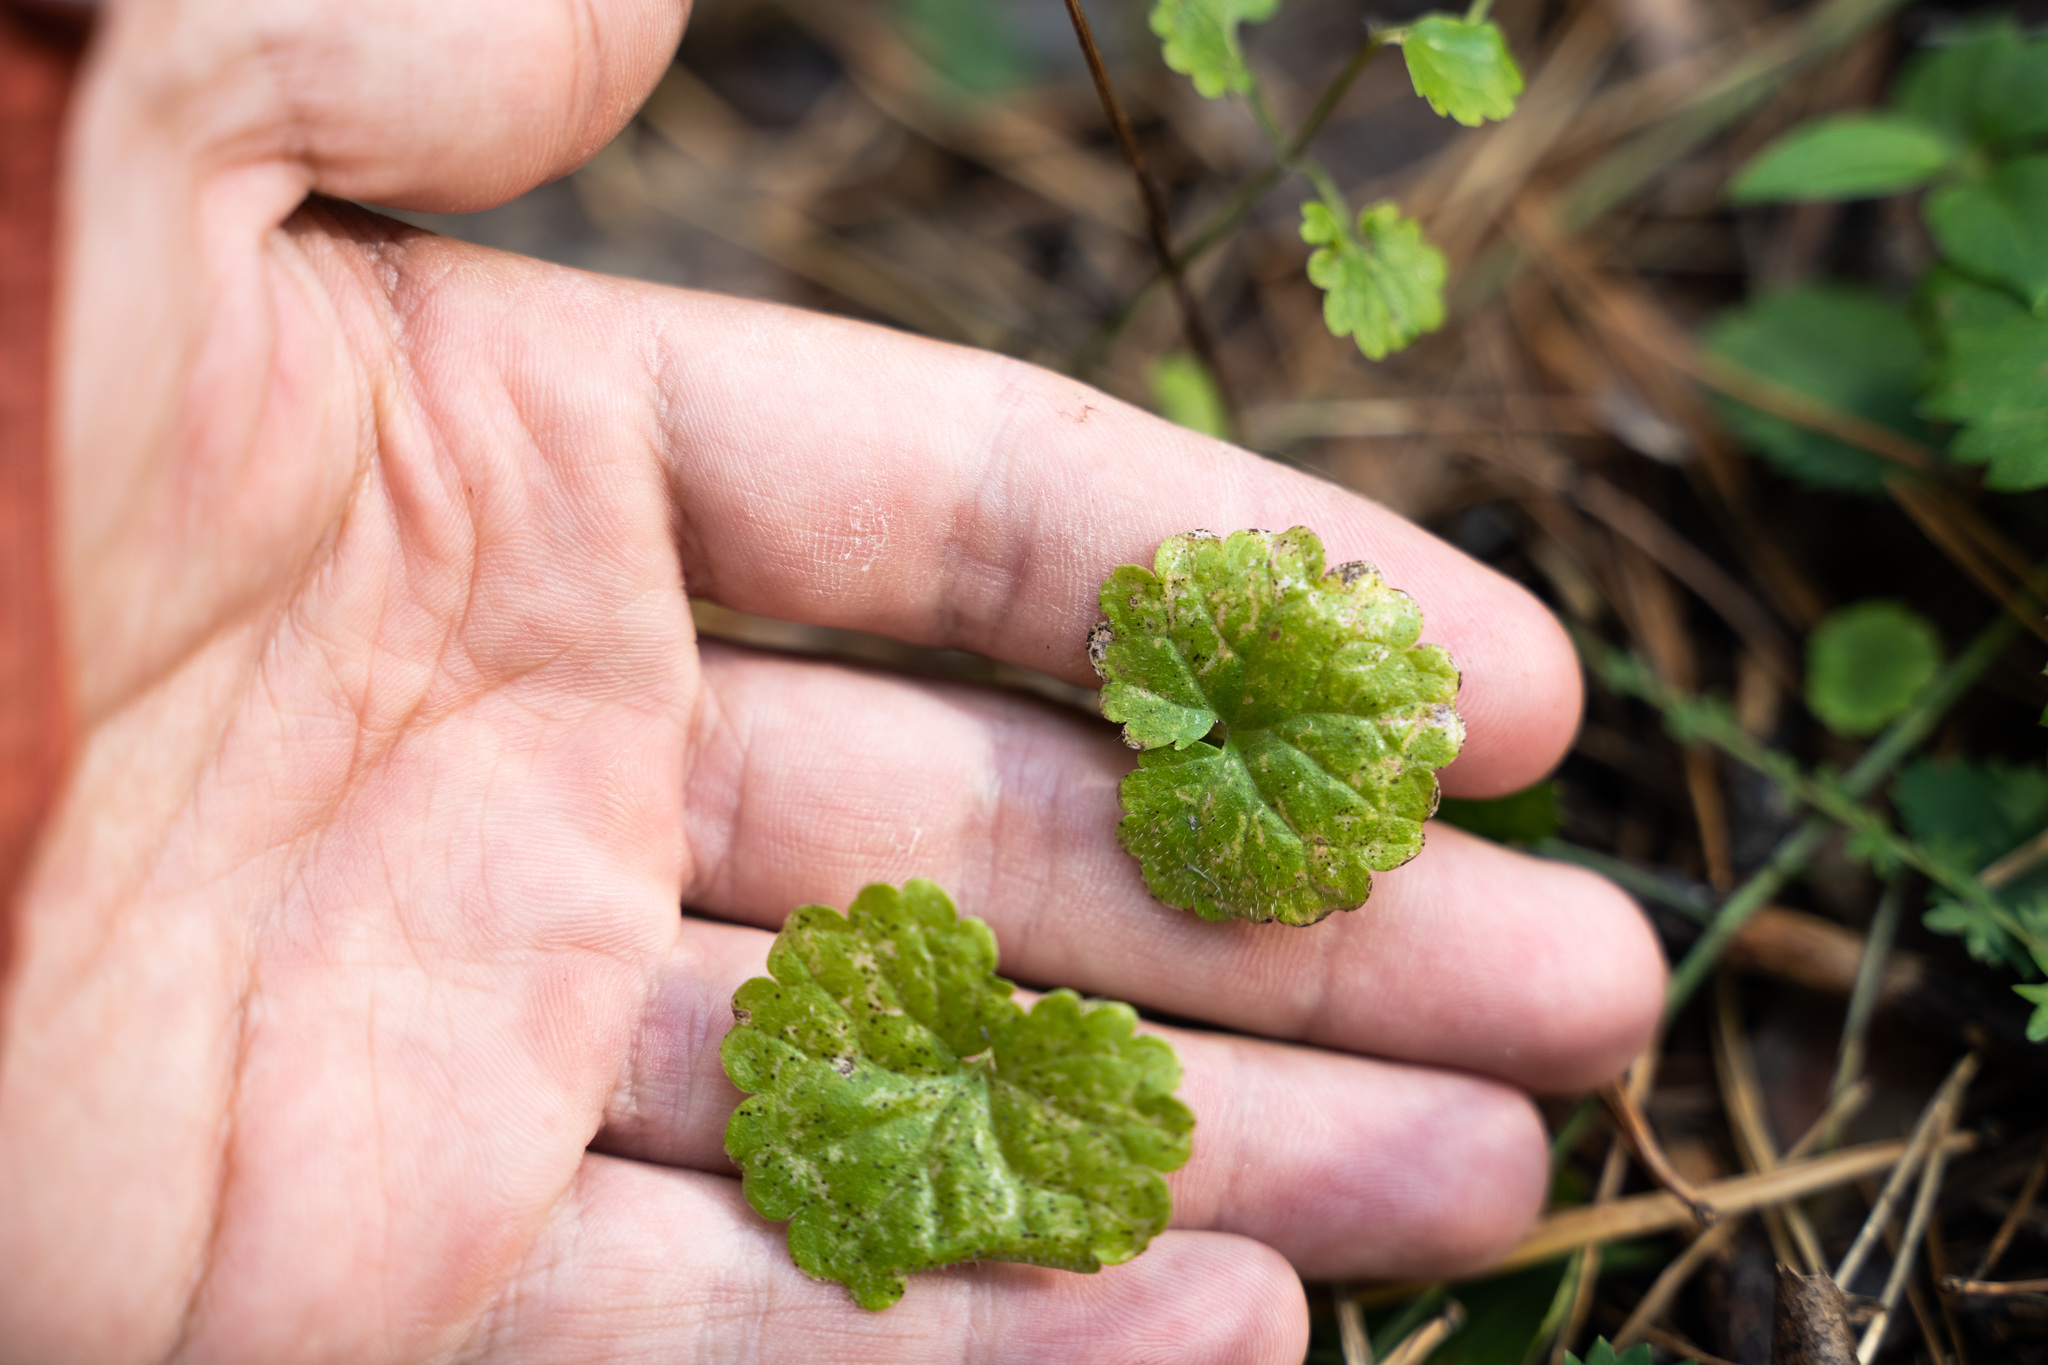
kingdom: Plantae
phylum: Tracheophyta
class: Magnoliopsida
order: Lamiales
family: Lamiaceae
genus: Glechoma
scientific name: Glechoma hederacea
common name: Ground ivy
